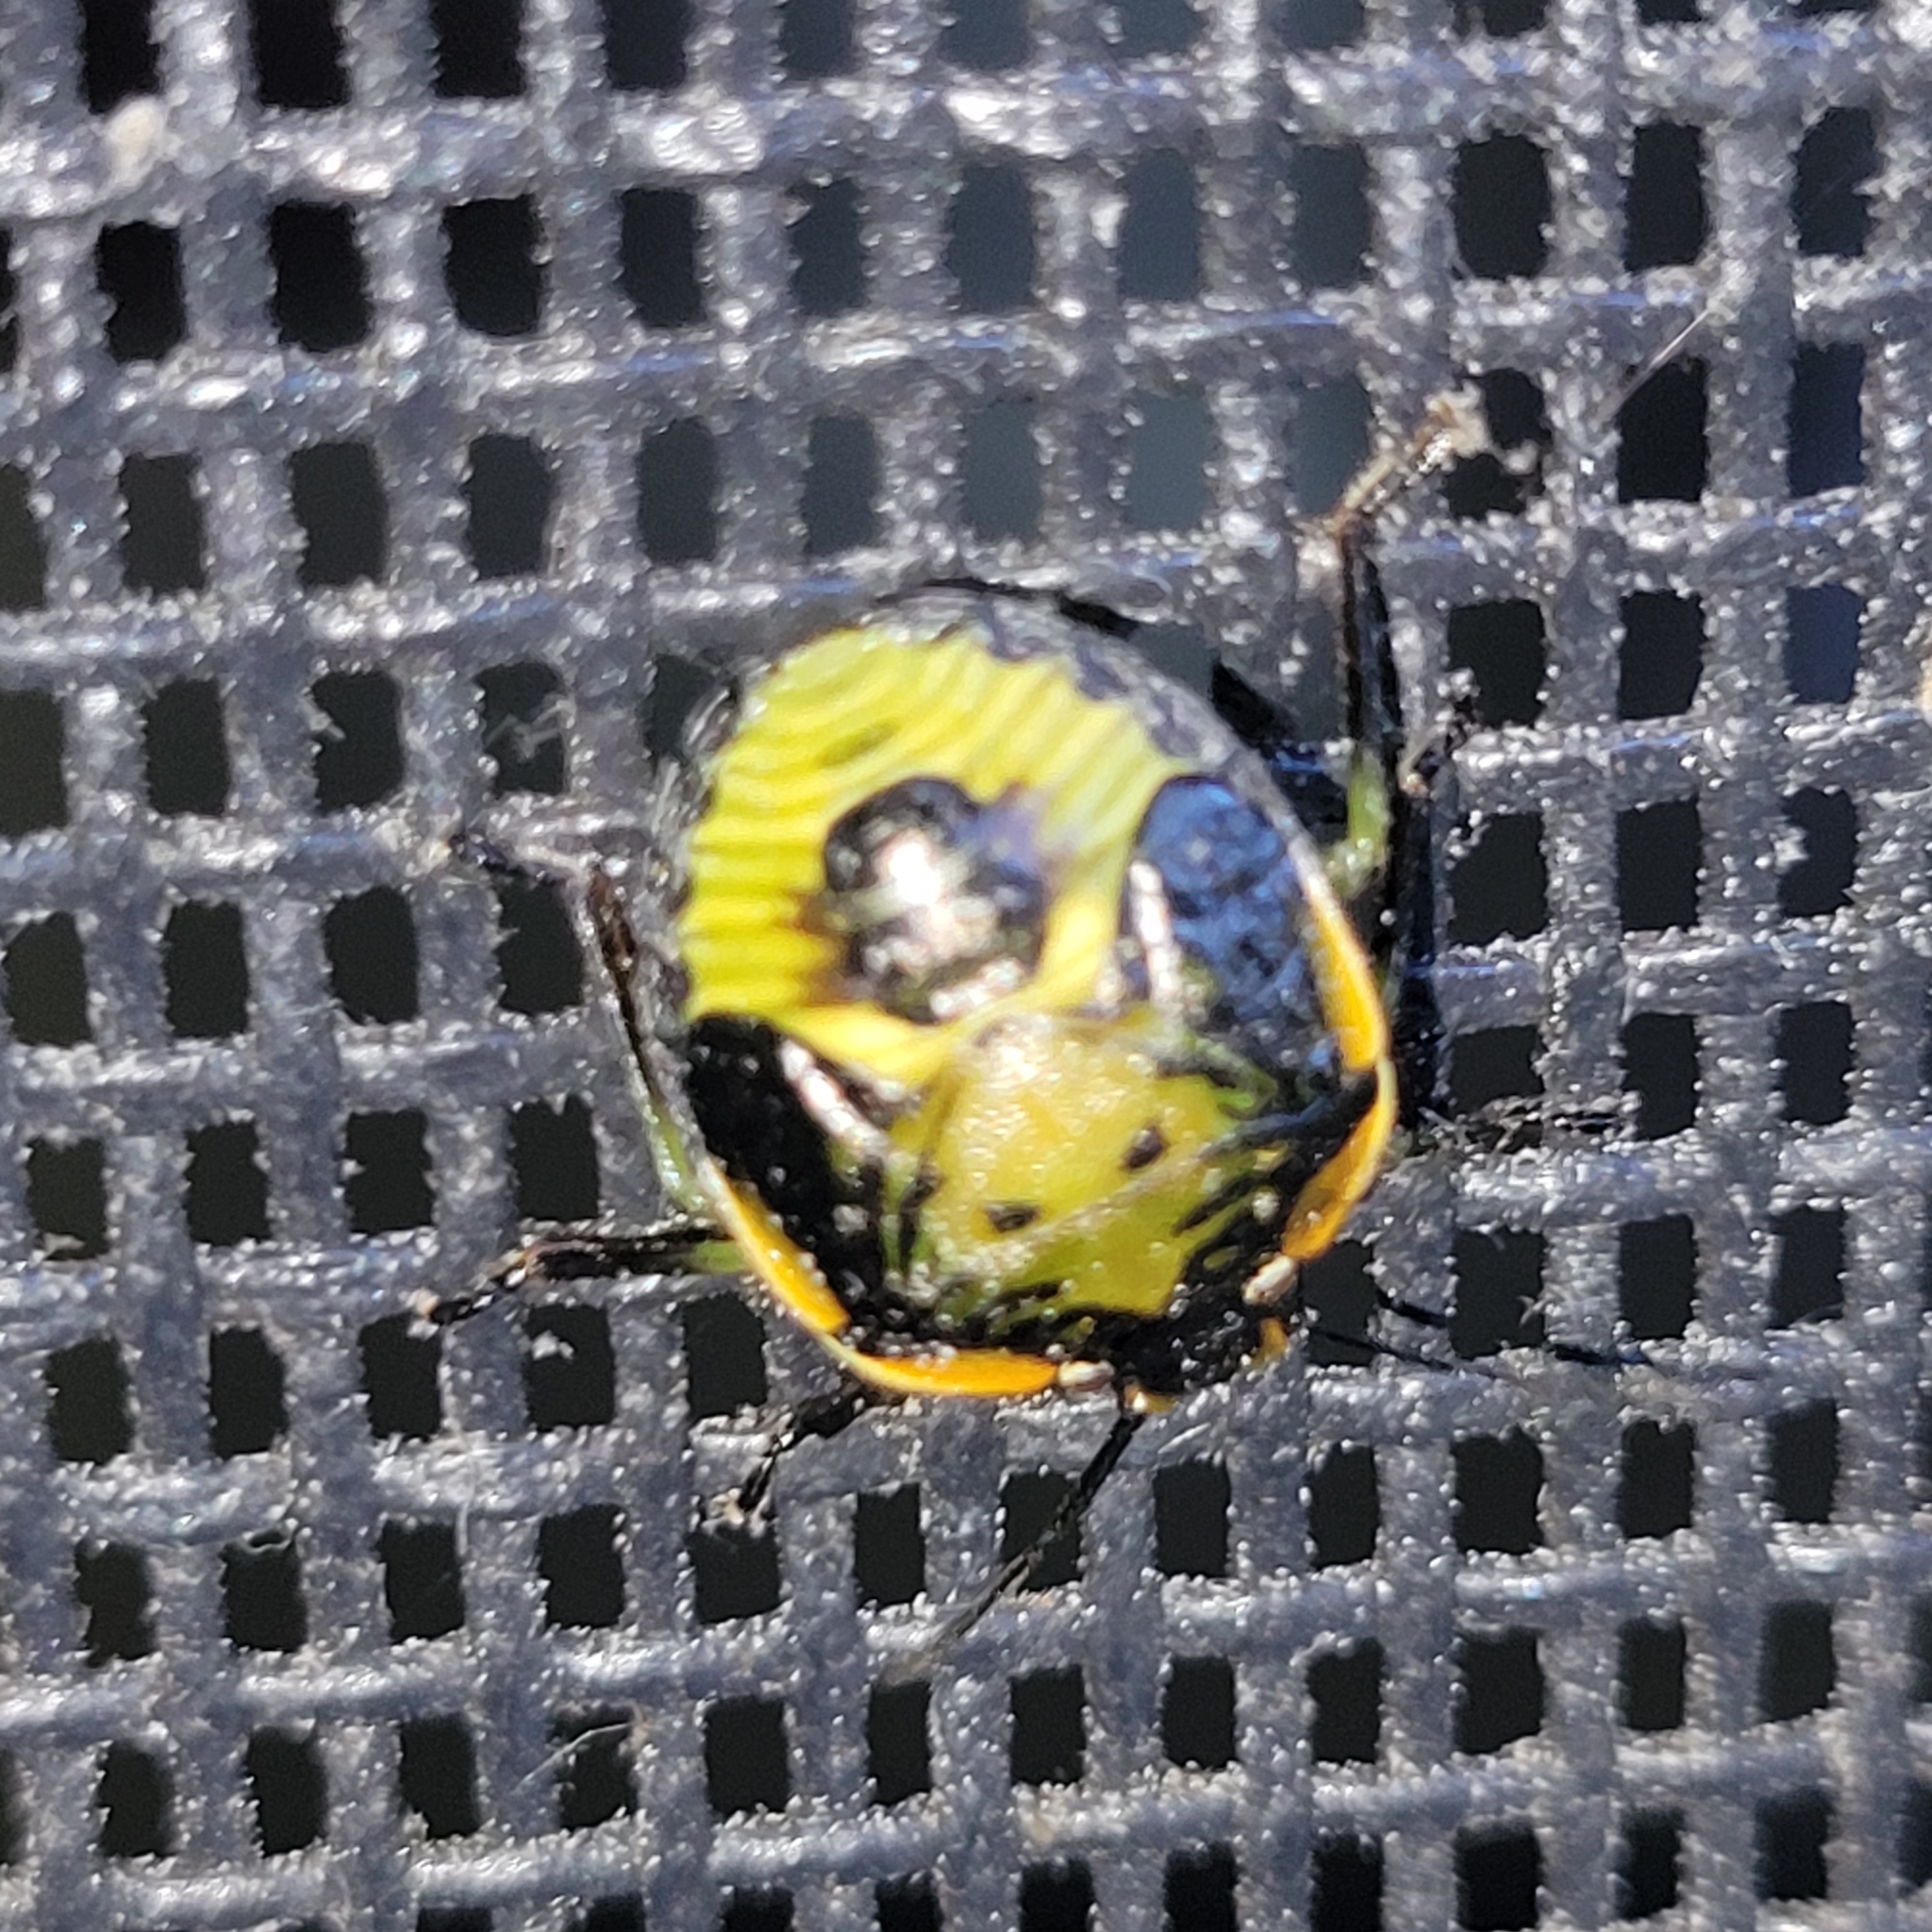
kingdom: Animalia
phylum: Arthropoda
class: Insecta
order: Hemiptera
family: Pentatomidae
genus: Chinavia
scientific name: Chinavia hilaris
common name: Green stink bug
